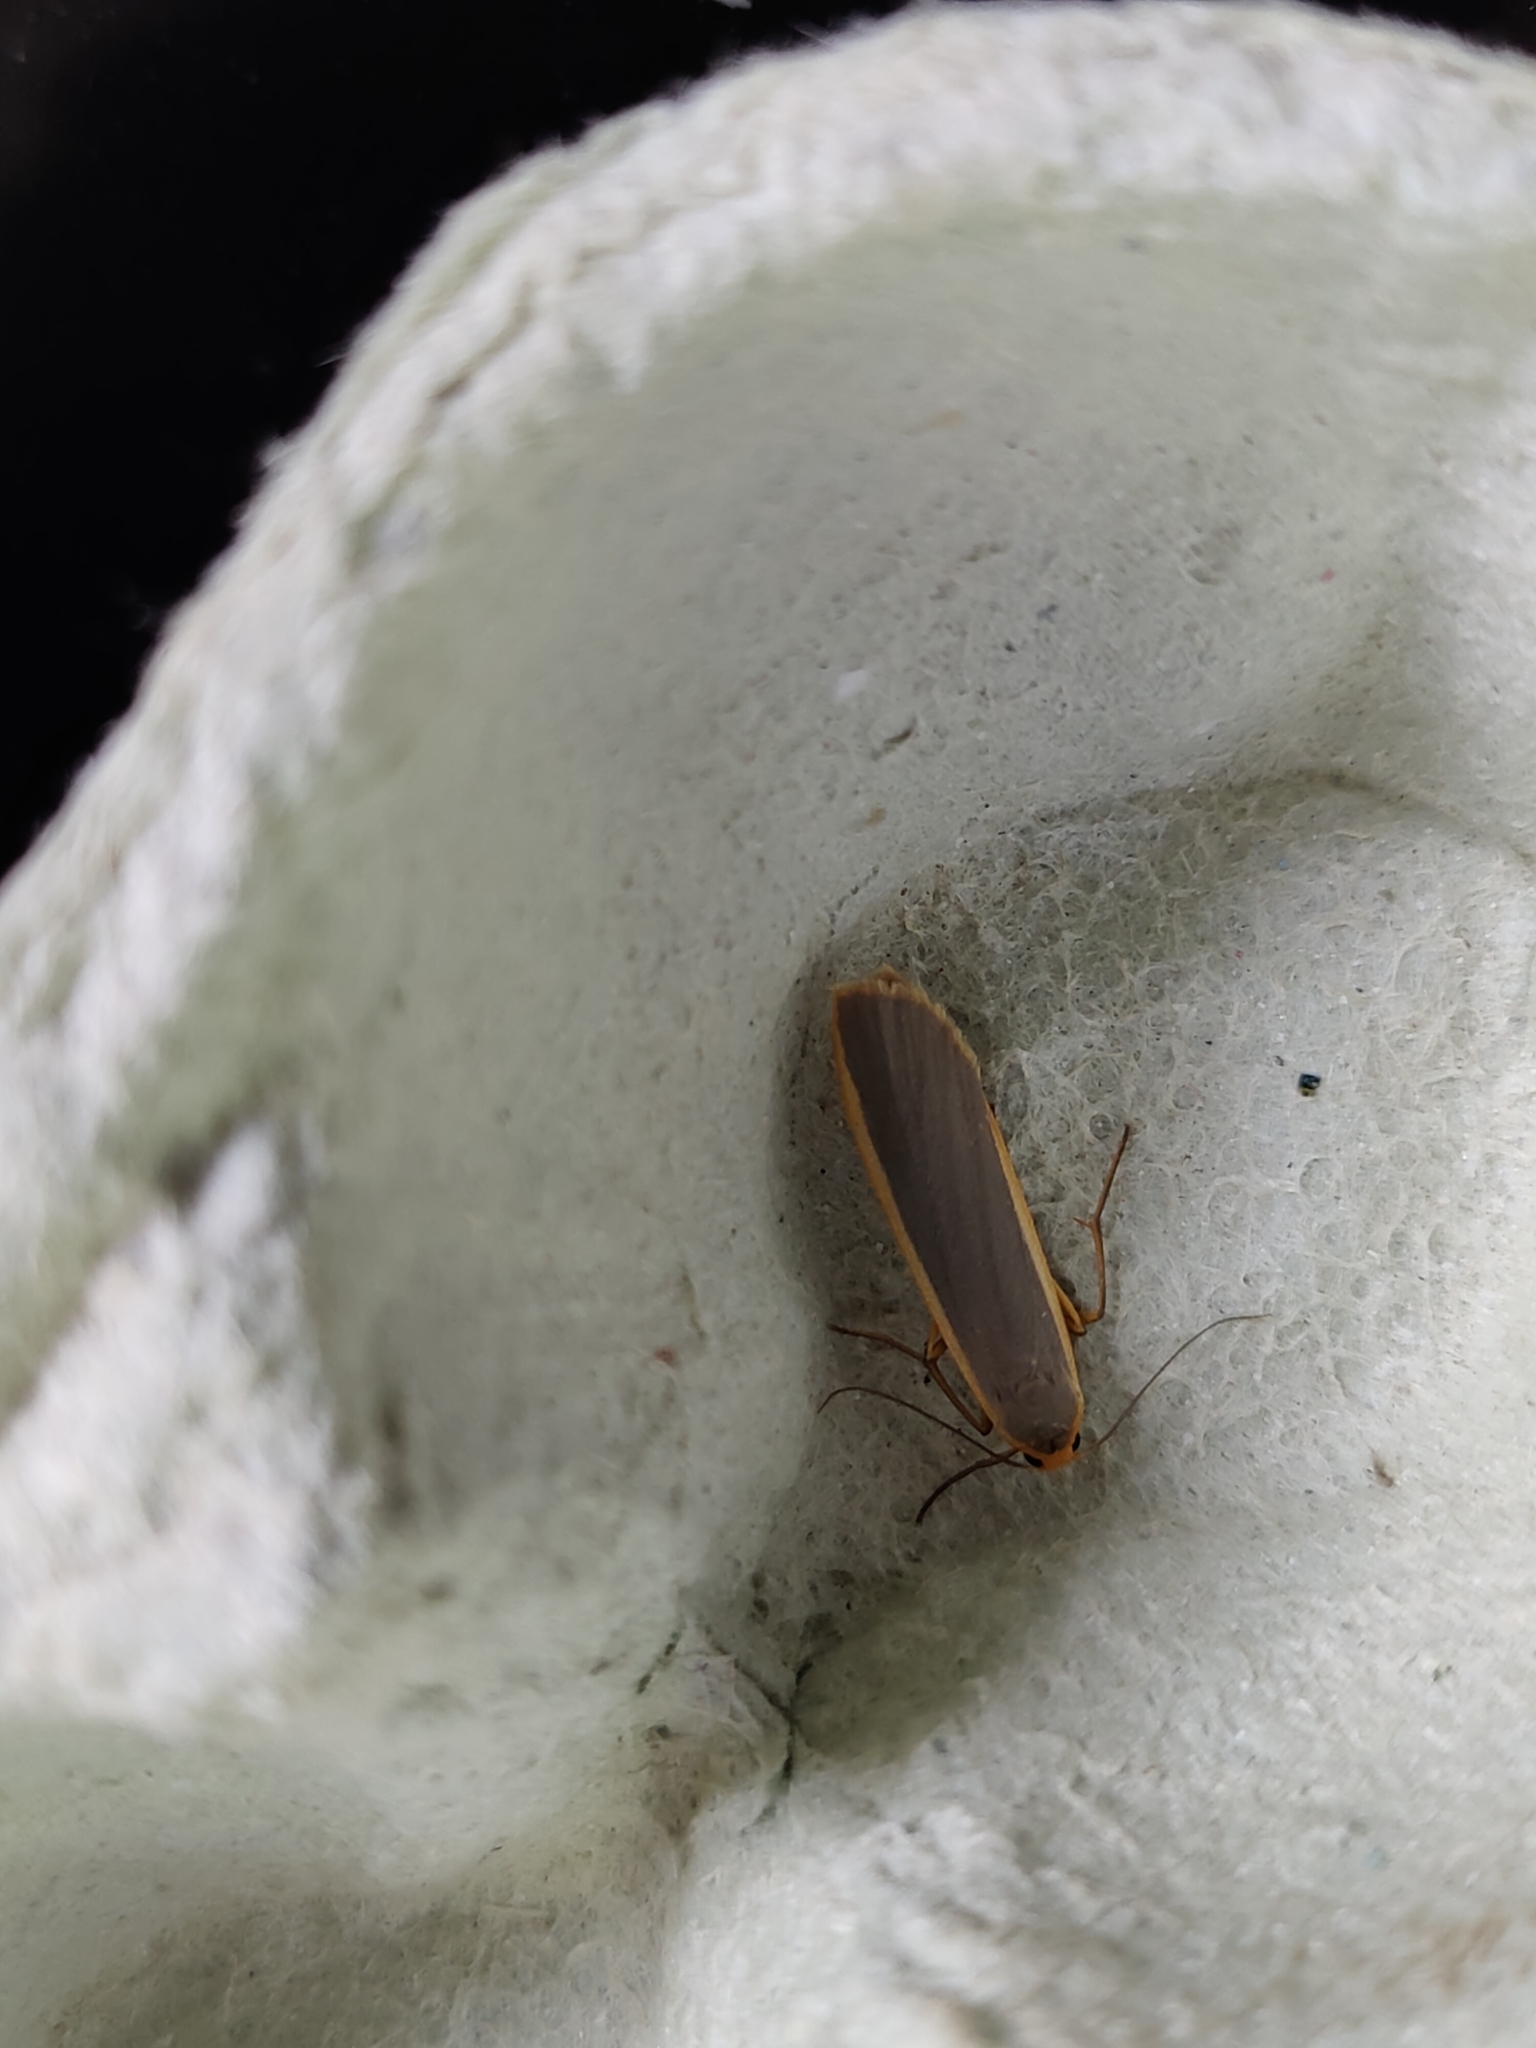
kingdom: Animalia
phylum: Arthropoda
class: Insecta
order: Lepidoptera
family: Erebidae
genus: Nyea
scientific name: Nyea lurideola
